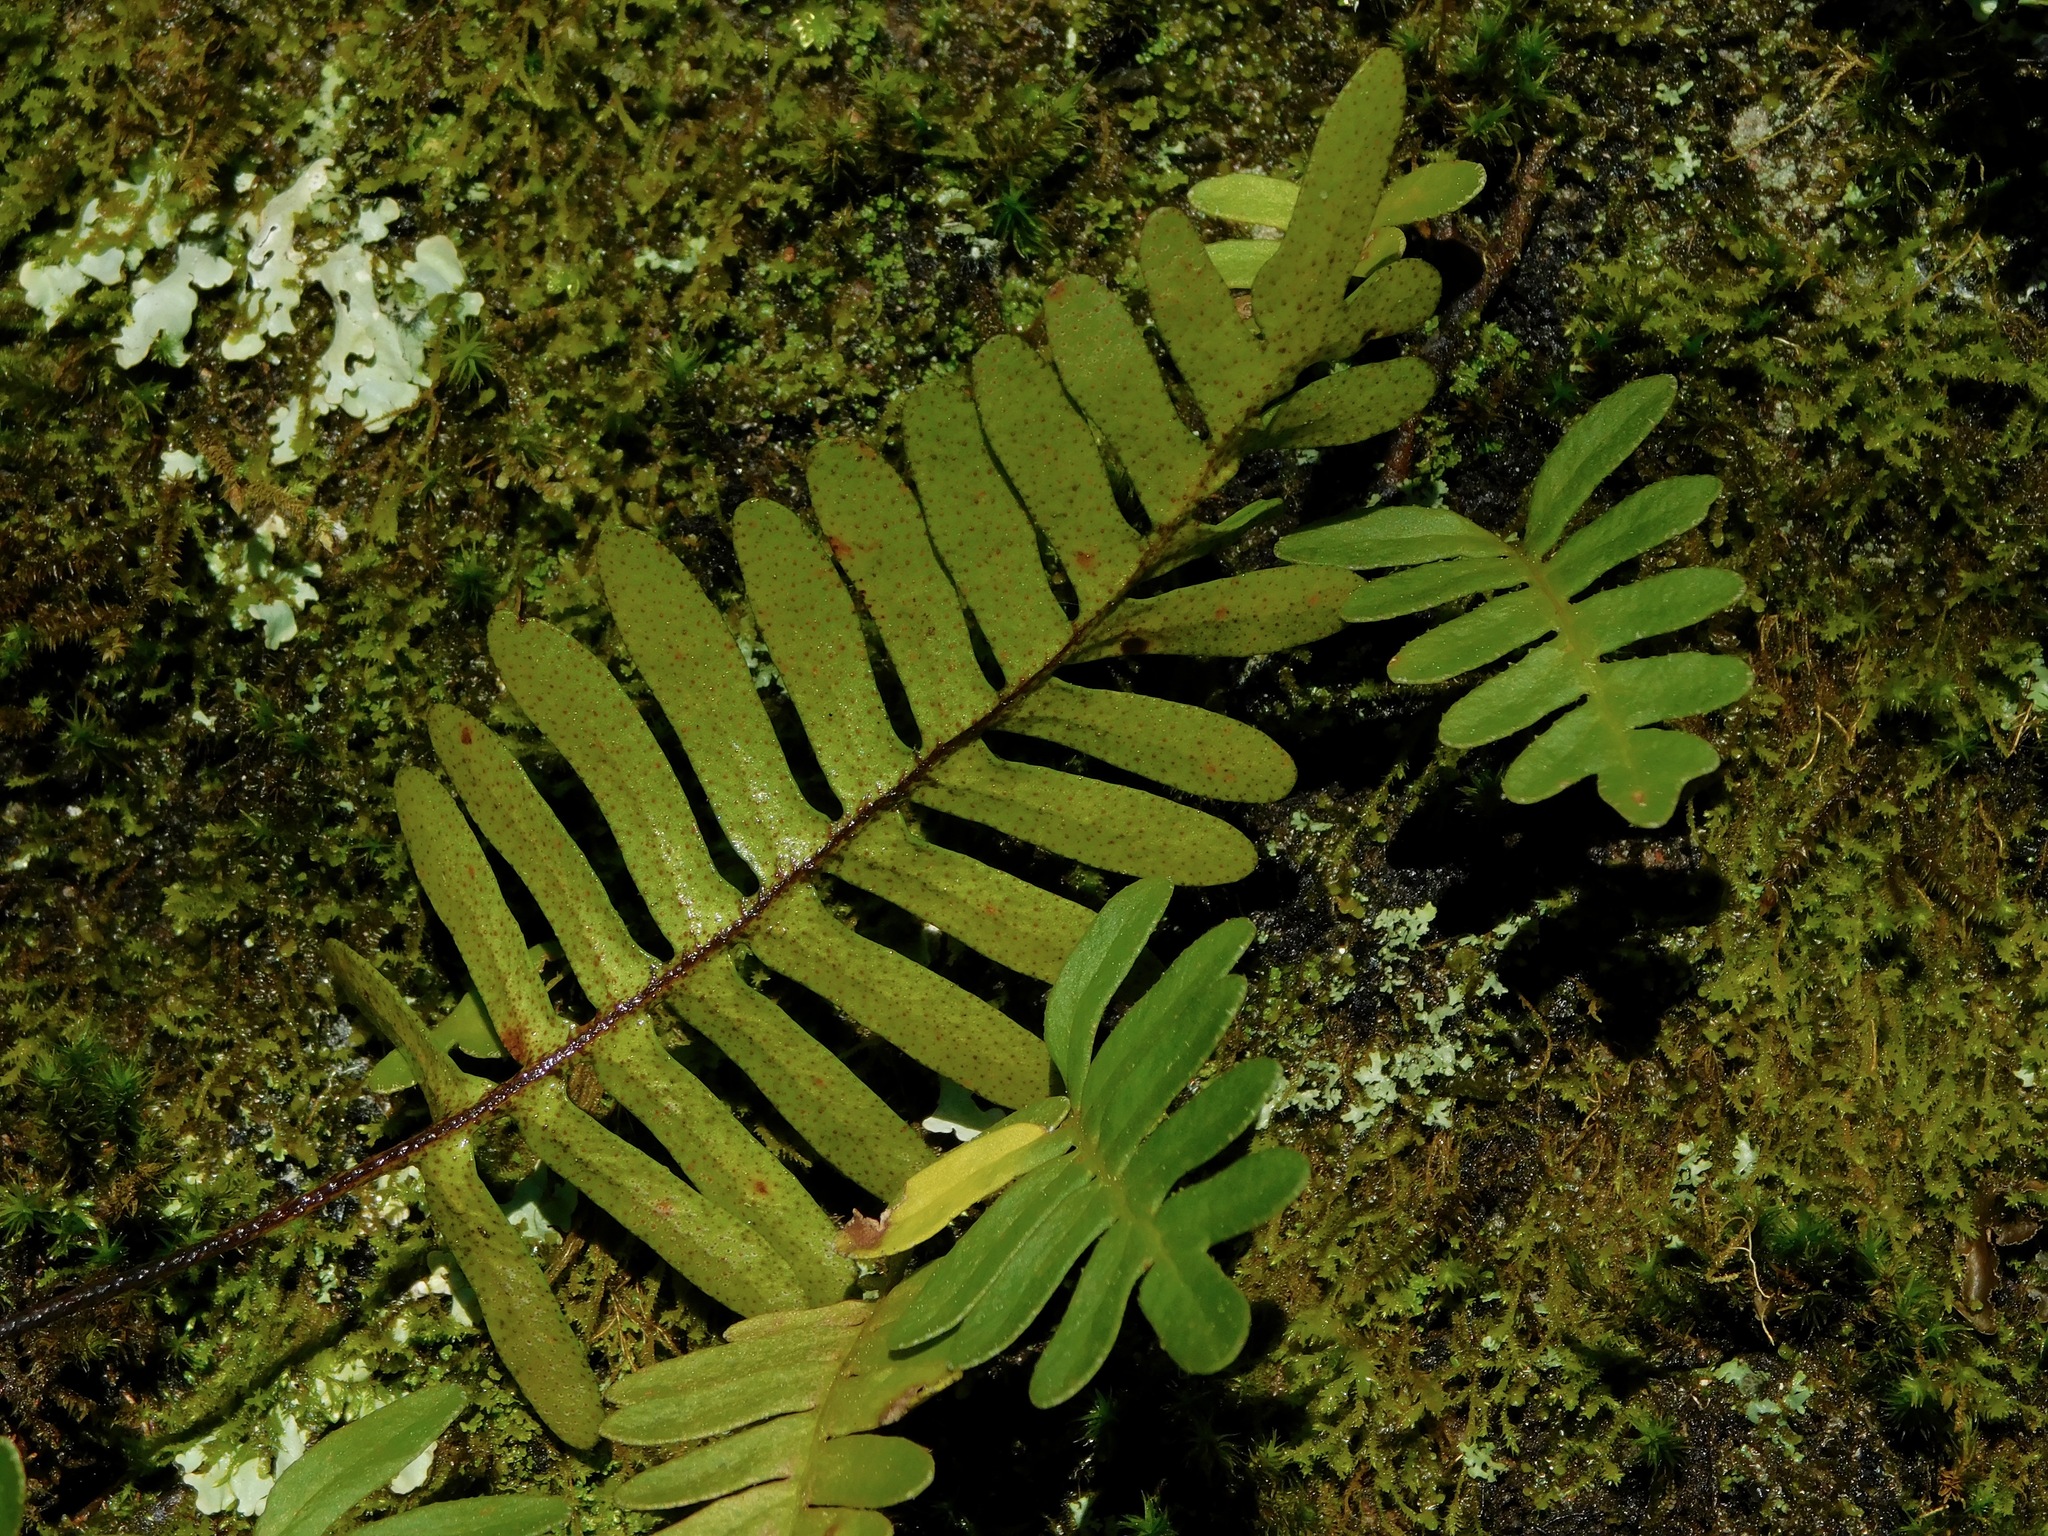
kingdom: Plantae
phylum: Tracheophyta
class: Polypodiopsida
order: Polypodiales
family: Polypodiaceae
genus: Pleopeltis
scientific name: Pleopeltis michauxiana
